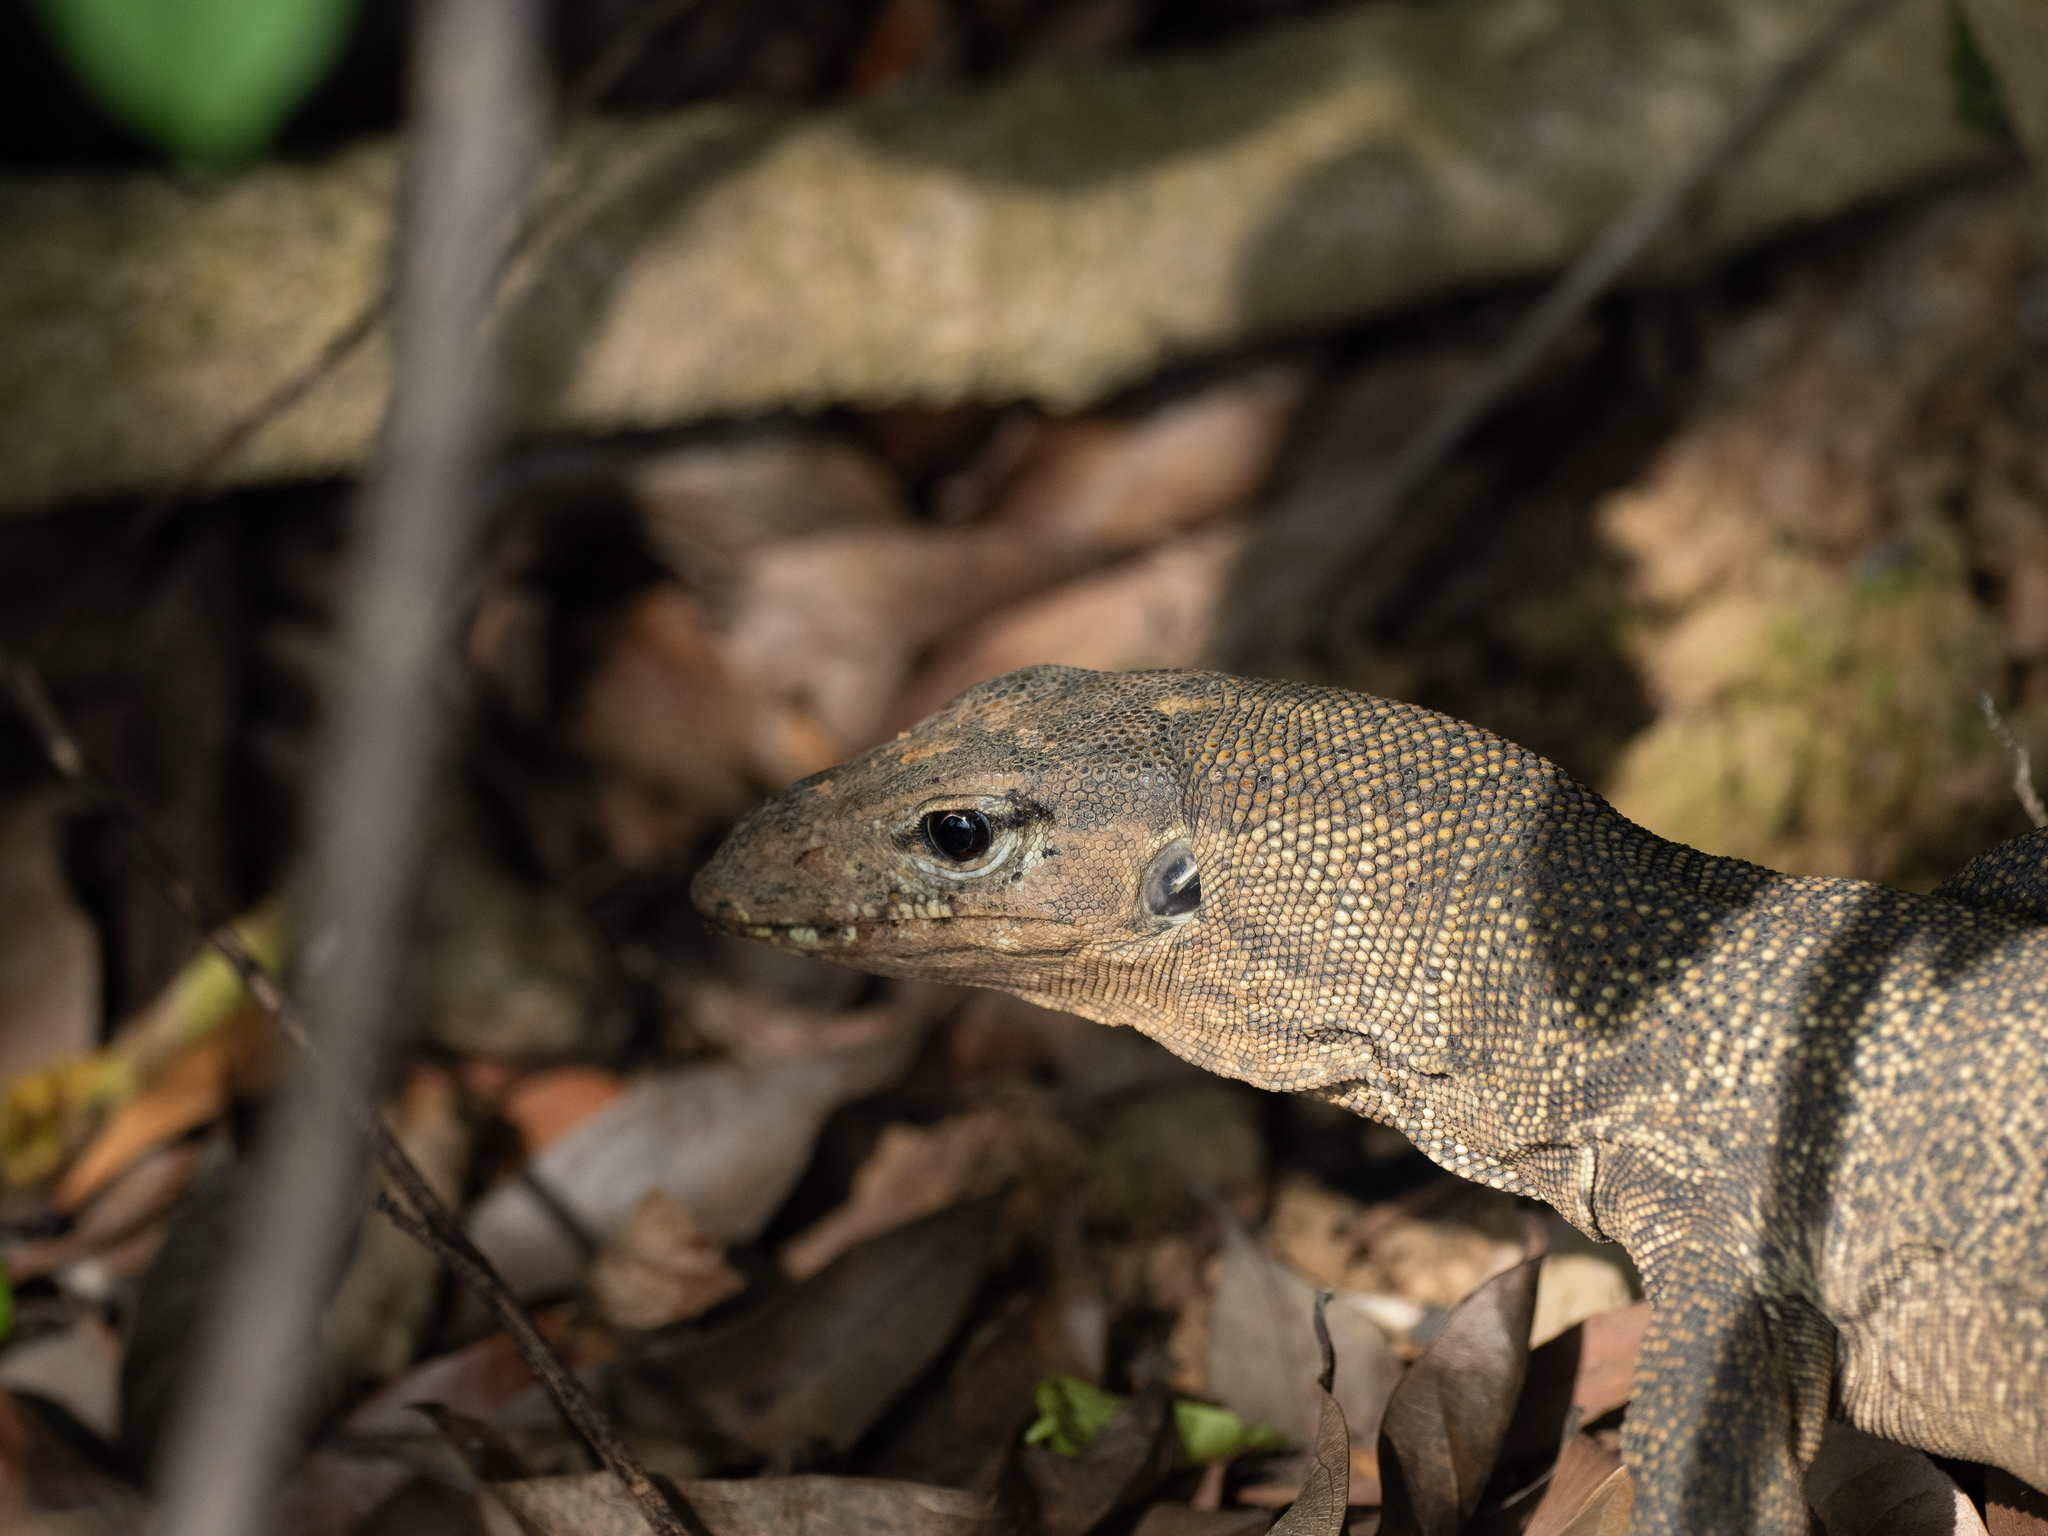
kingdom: Animalia
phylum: Chordata
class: Squamata
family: Varanidae
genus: Varanus
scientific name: Varanus nebulosus
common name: Clouded monitor
